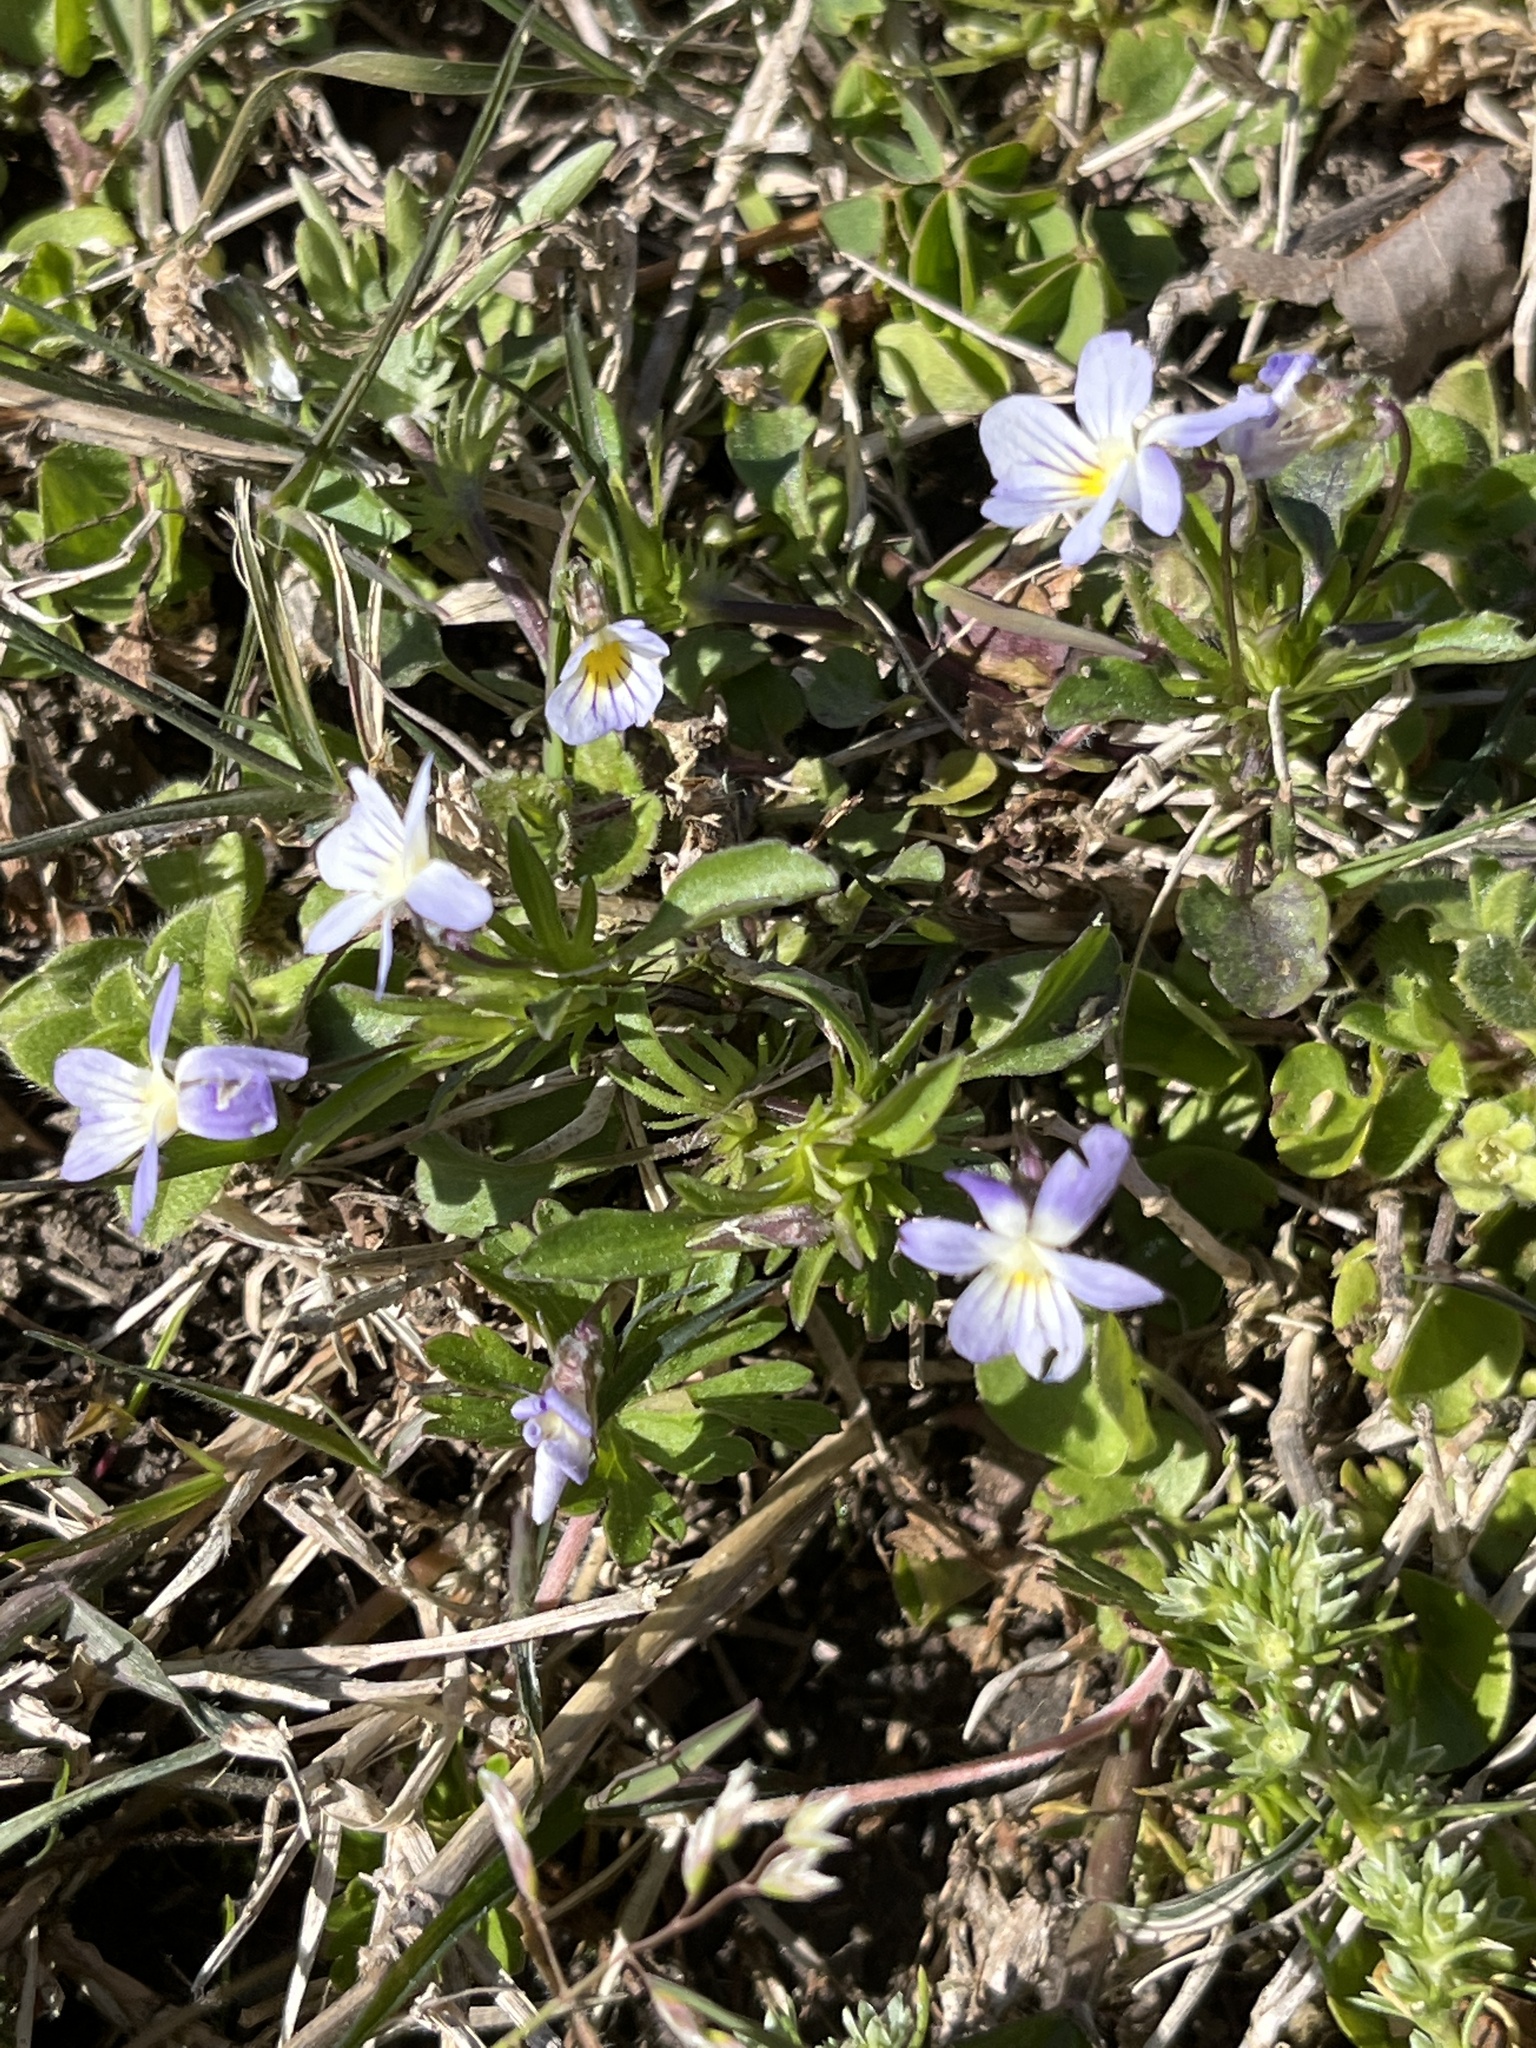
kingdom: Plantae
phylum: Tracheophyta
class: Magnoliopsida
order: Malpighiales
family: Violaceae
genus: Viola
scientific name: Viola rafinesquei
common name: American field pansy
